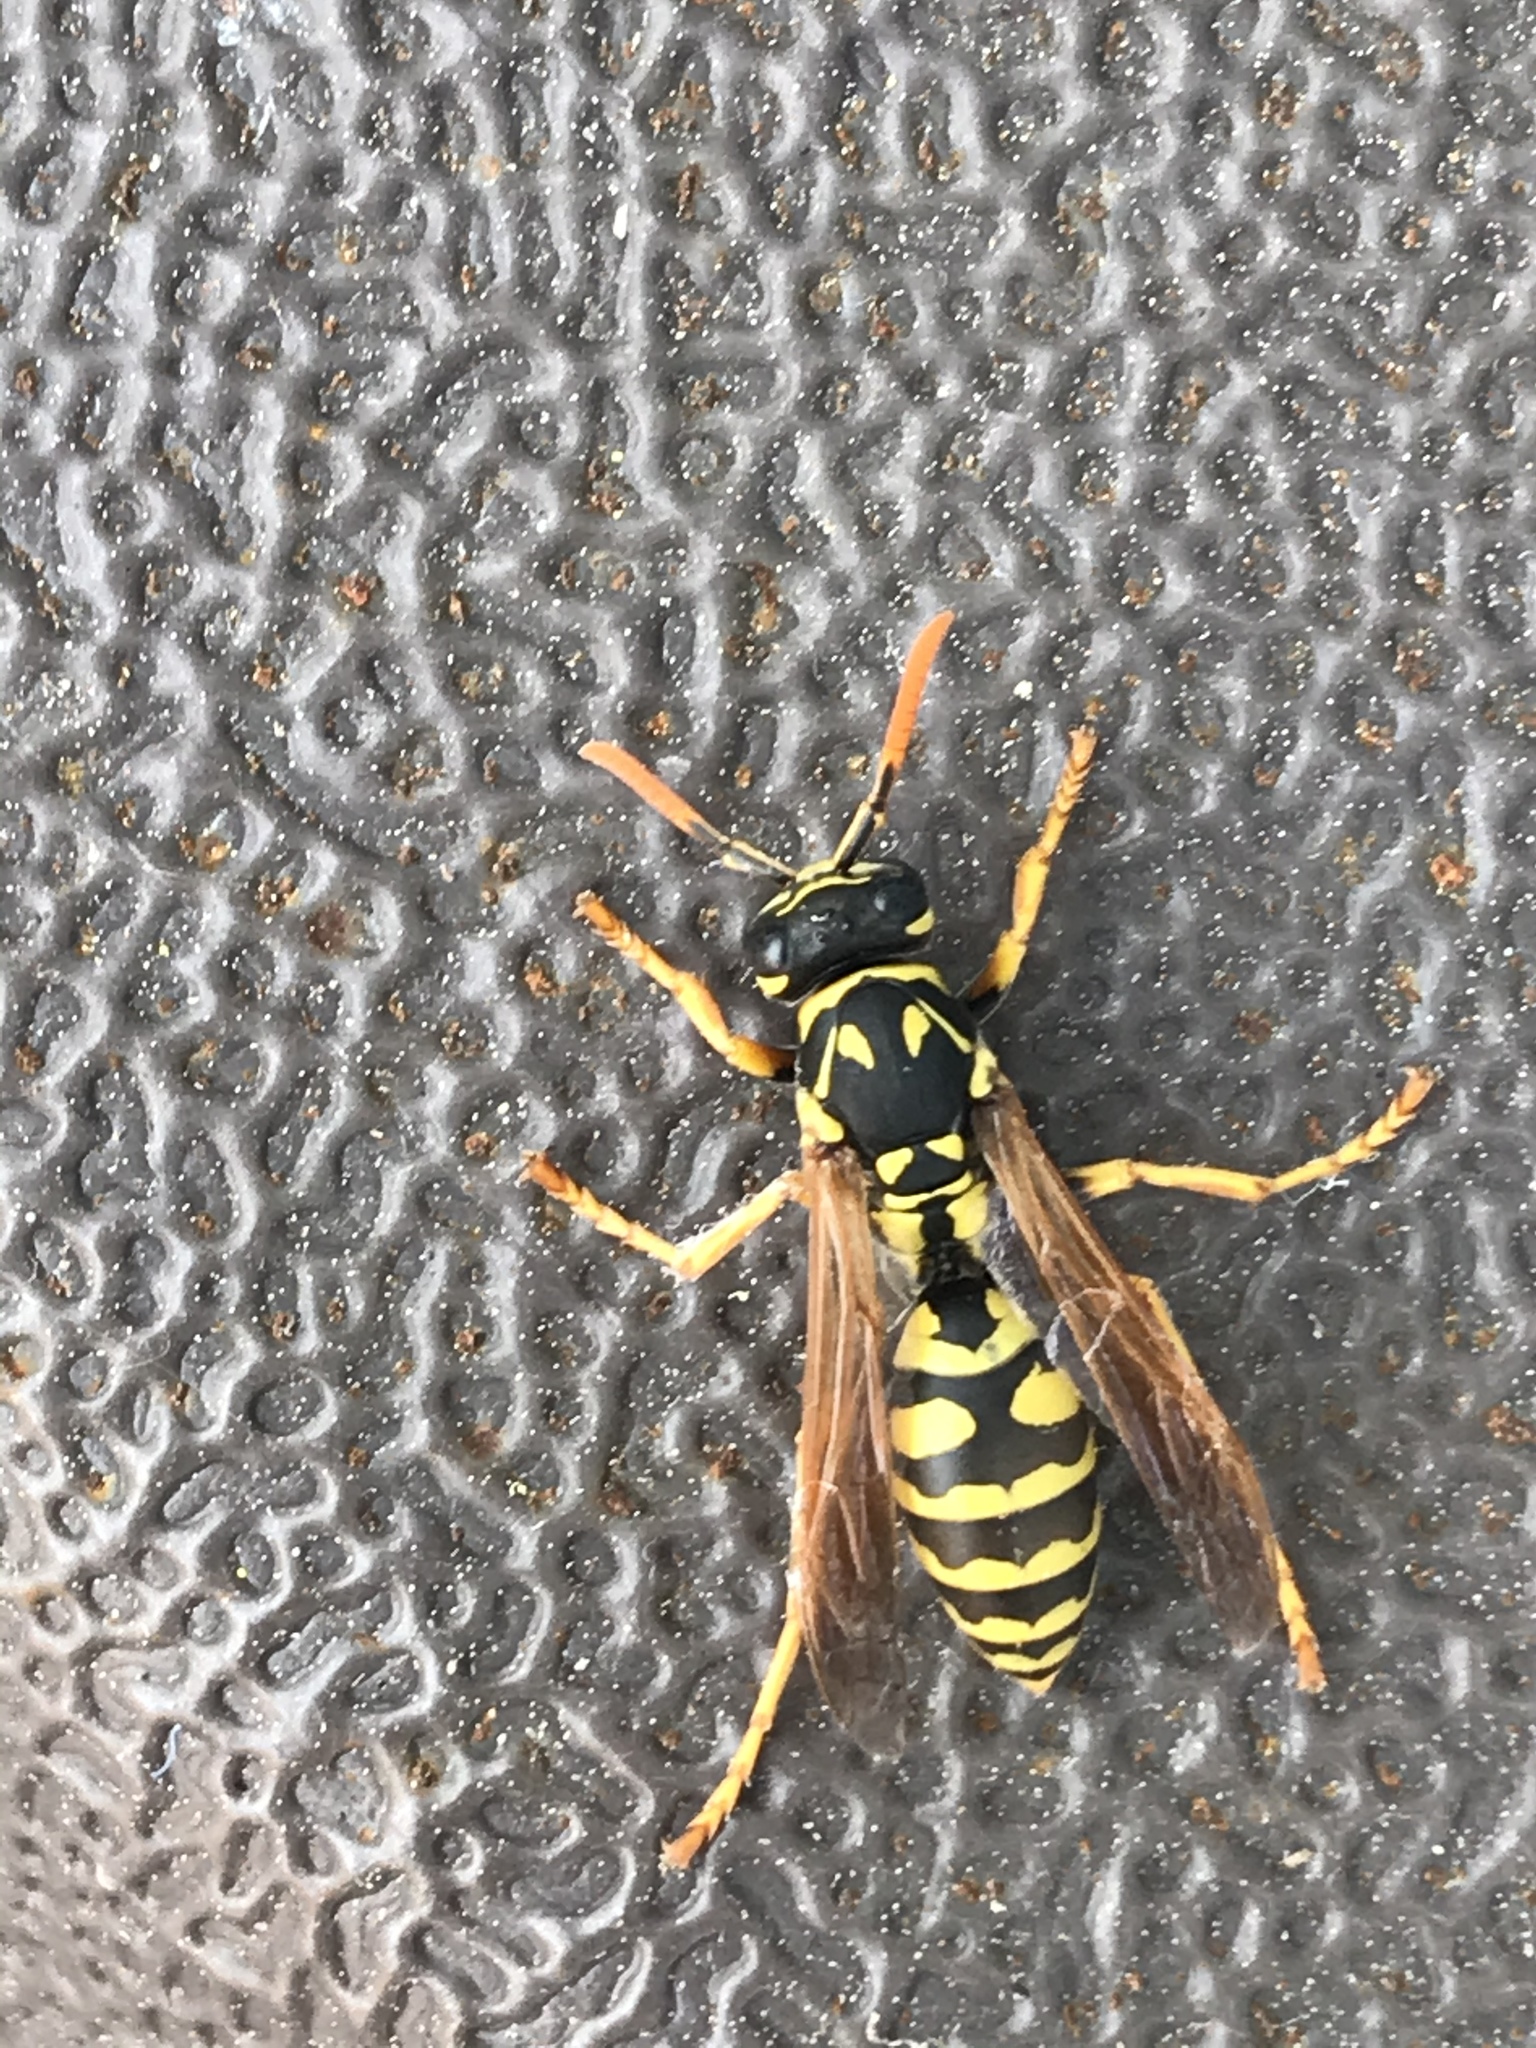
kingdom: Animalia
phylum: Arthropoda
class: Insecta
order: Hymenoptera
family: Eumenidae
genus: Polistes
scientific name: Polistes dominula
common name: Paper wasp
